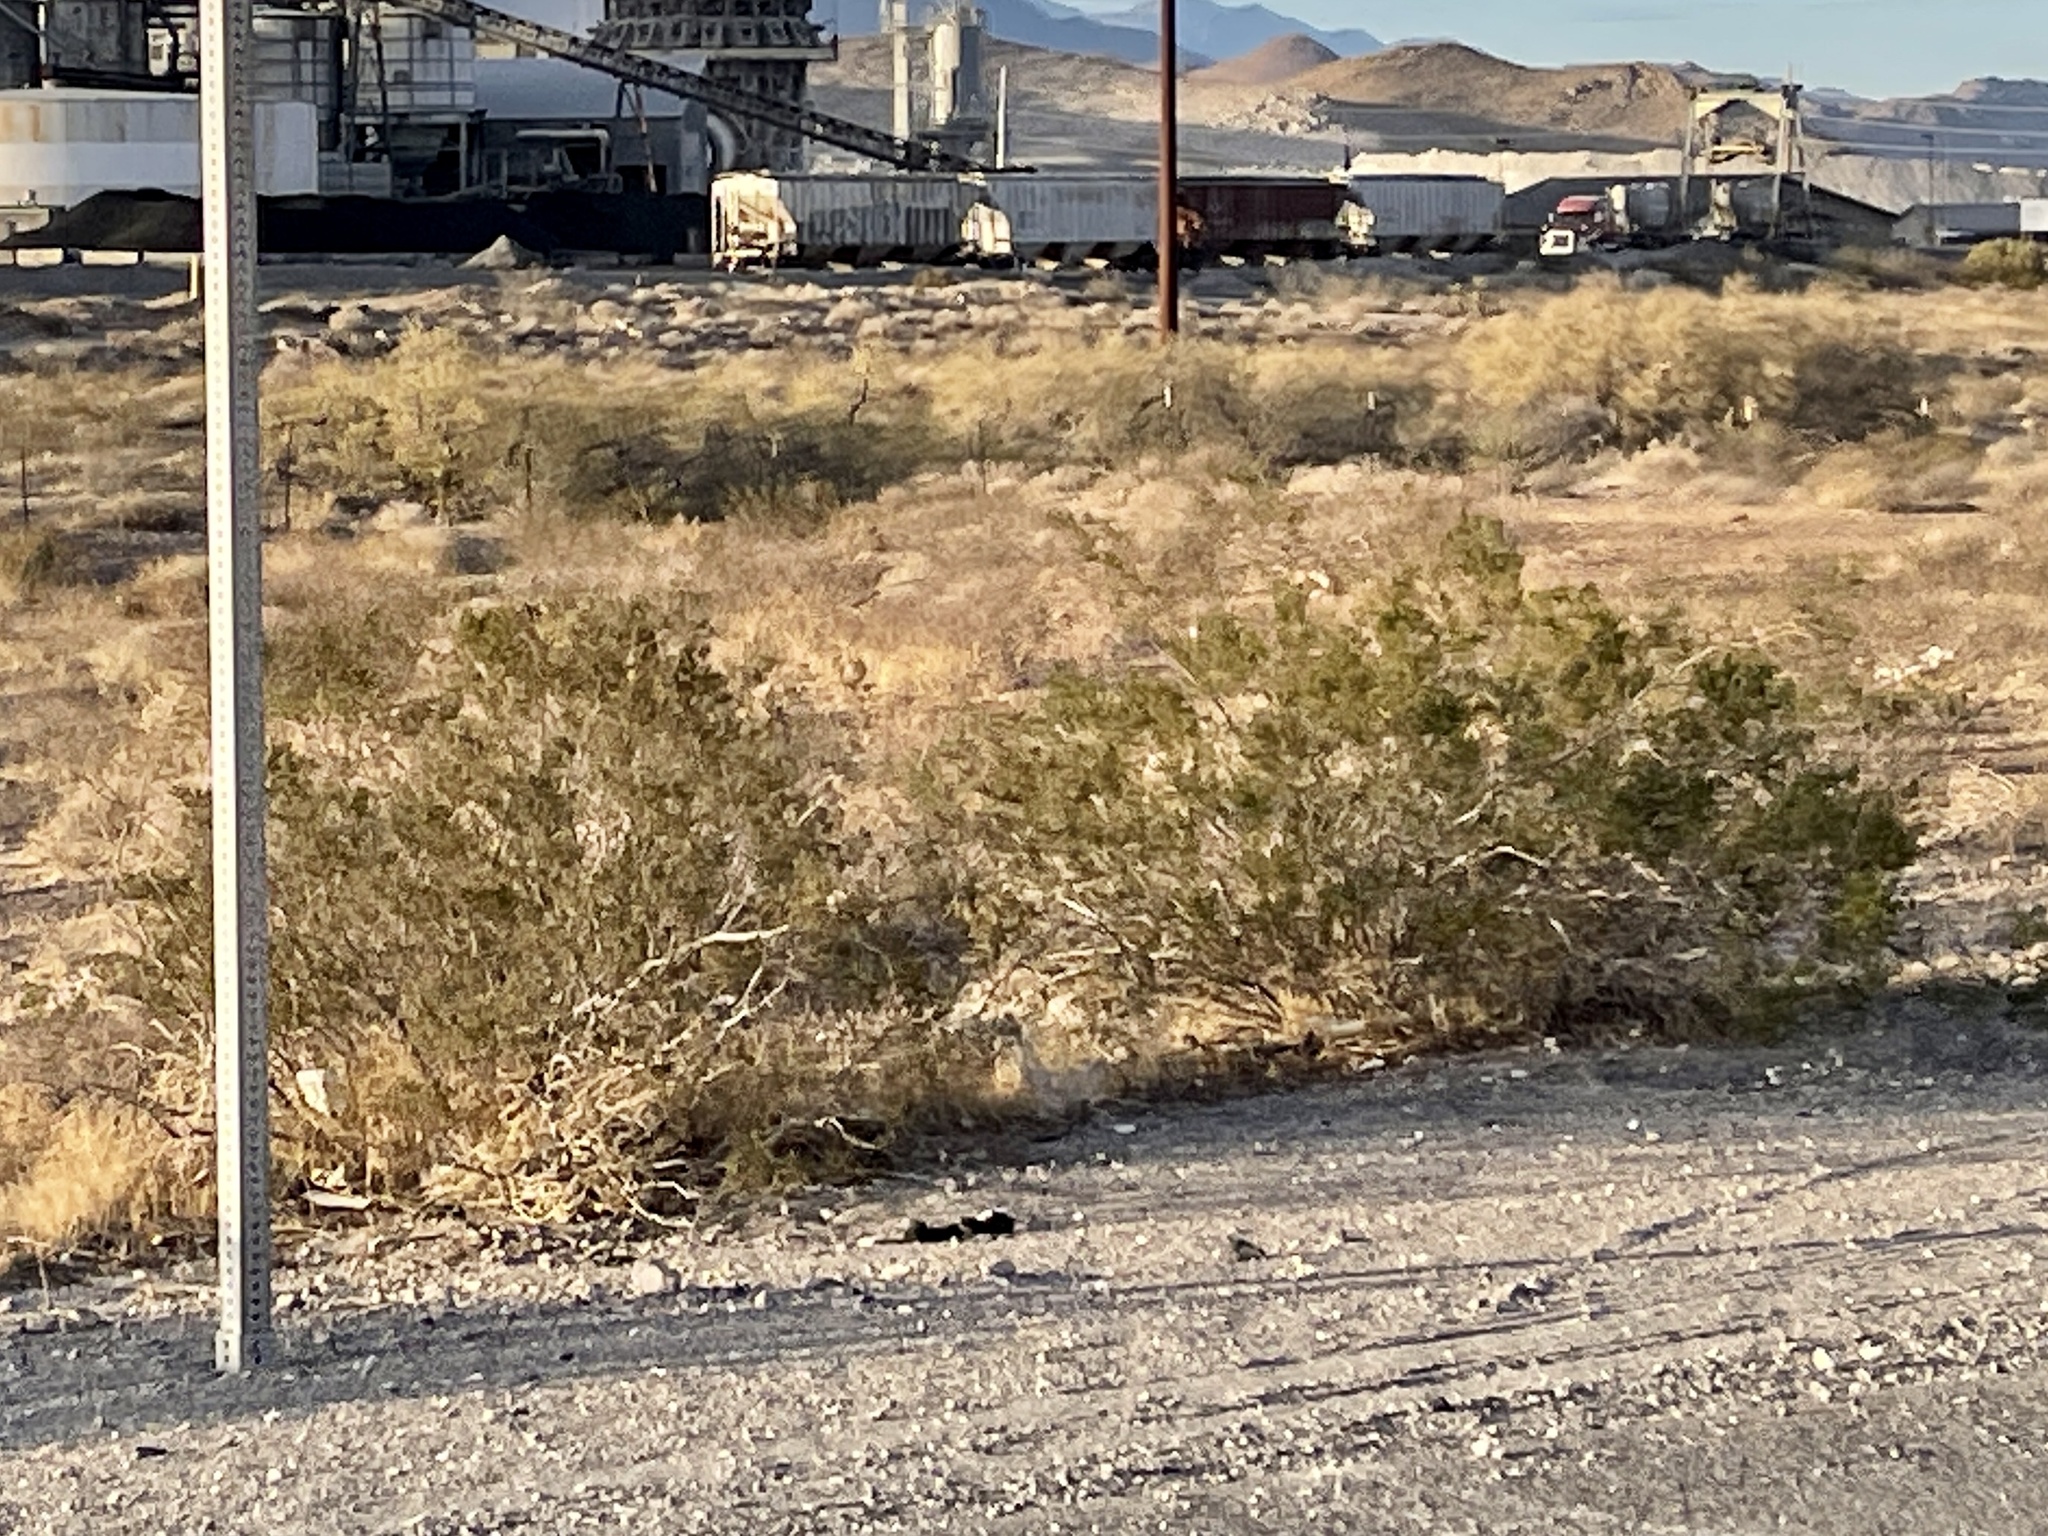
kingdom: Plantae
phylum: Tracheophyta
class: Magnoliopsida
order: Zygophyllales
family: Zygophyllaceae
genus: Larrea
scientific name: Larrea tridentata
